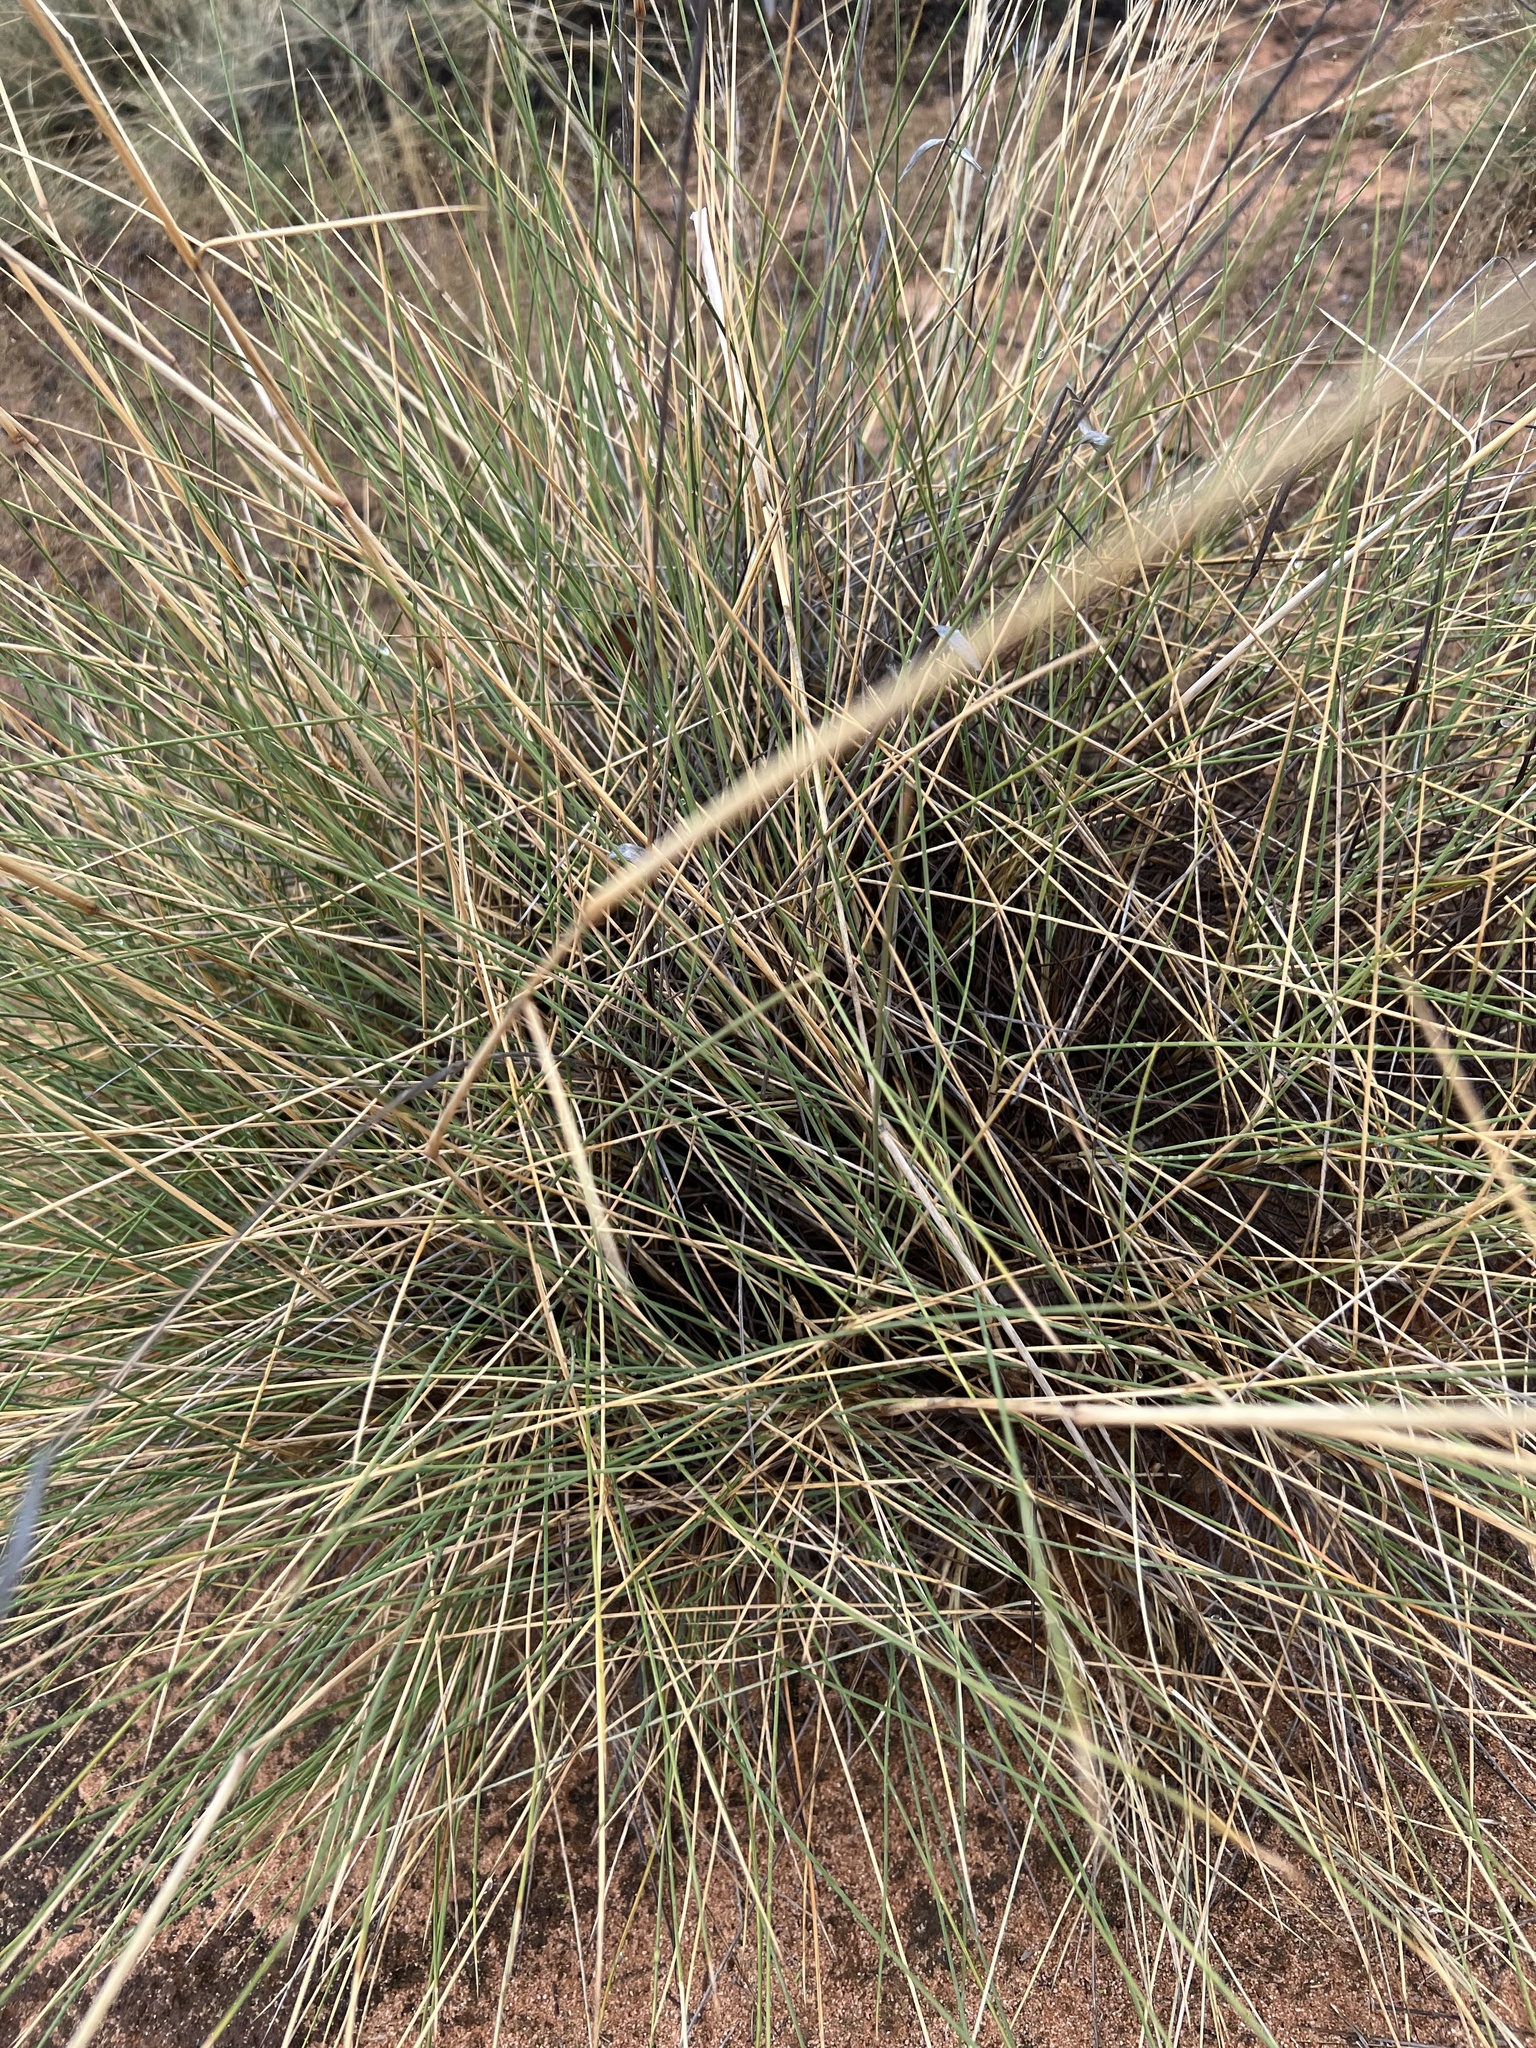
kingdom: Plantae
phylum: Tracheophyta
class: Liliopsida
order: Poales
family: Poaceae
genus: Triodia
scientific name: Triodia scariosa
